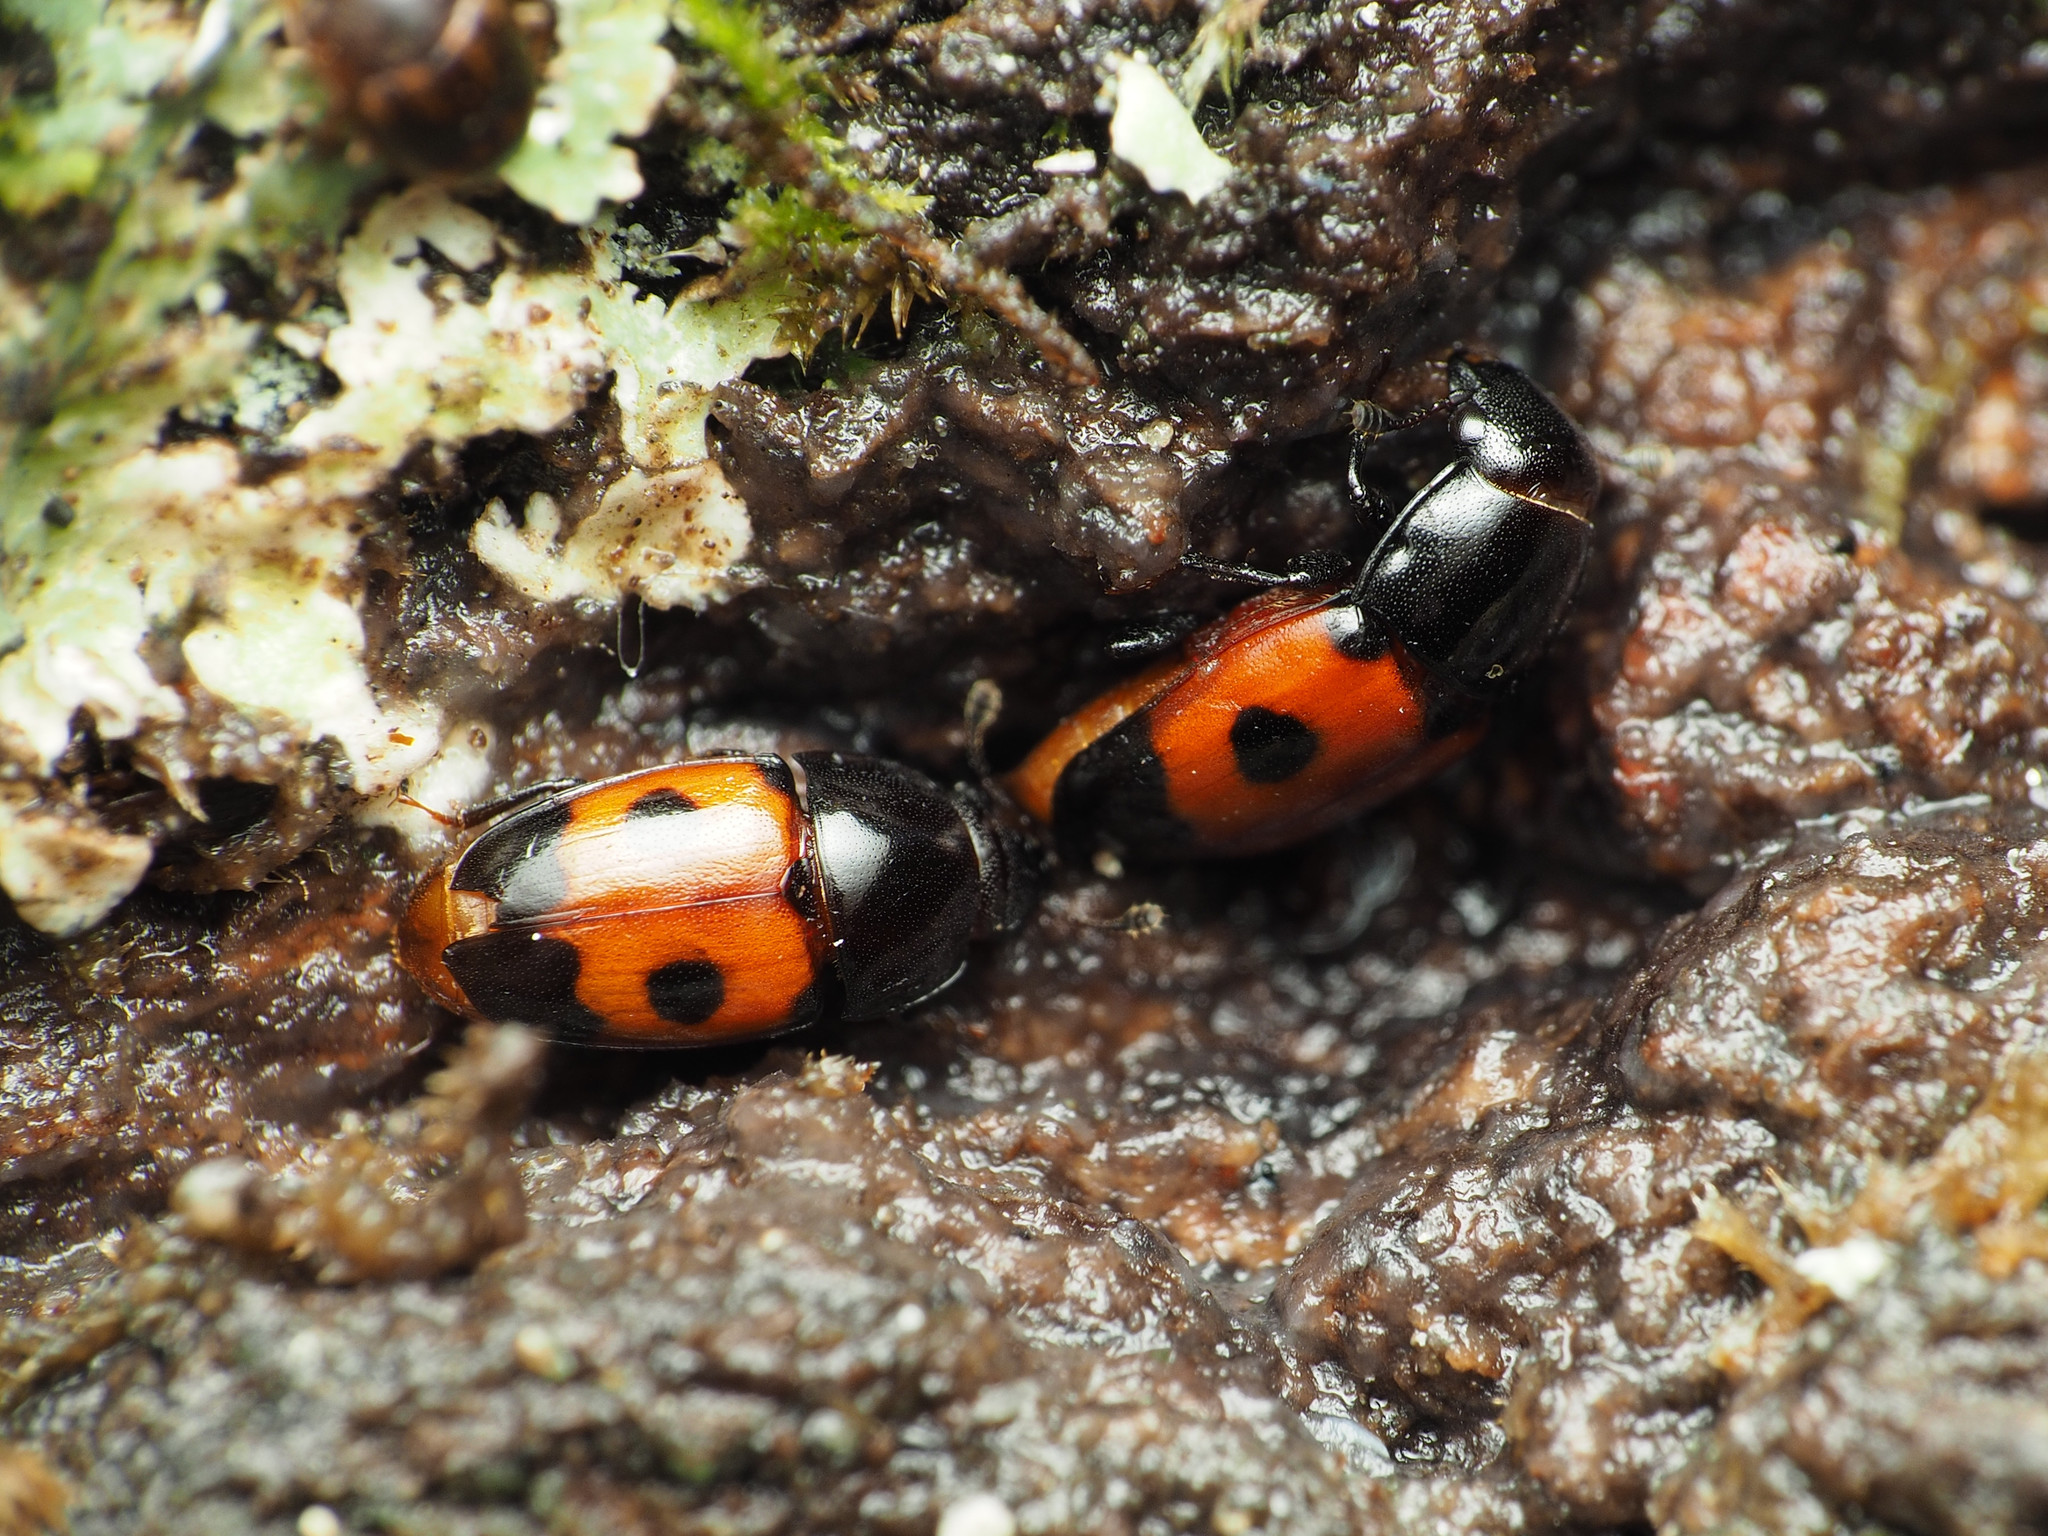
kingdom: Animalia
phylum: Arthropoda
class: Insecta
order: Coleoptera
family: Nitidulidae
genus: Glischrochilus
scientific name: Glischrochilus sanguinolentus
